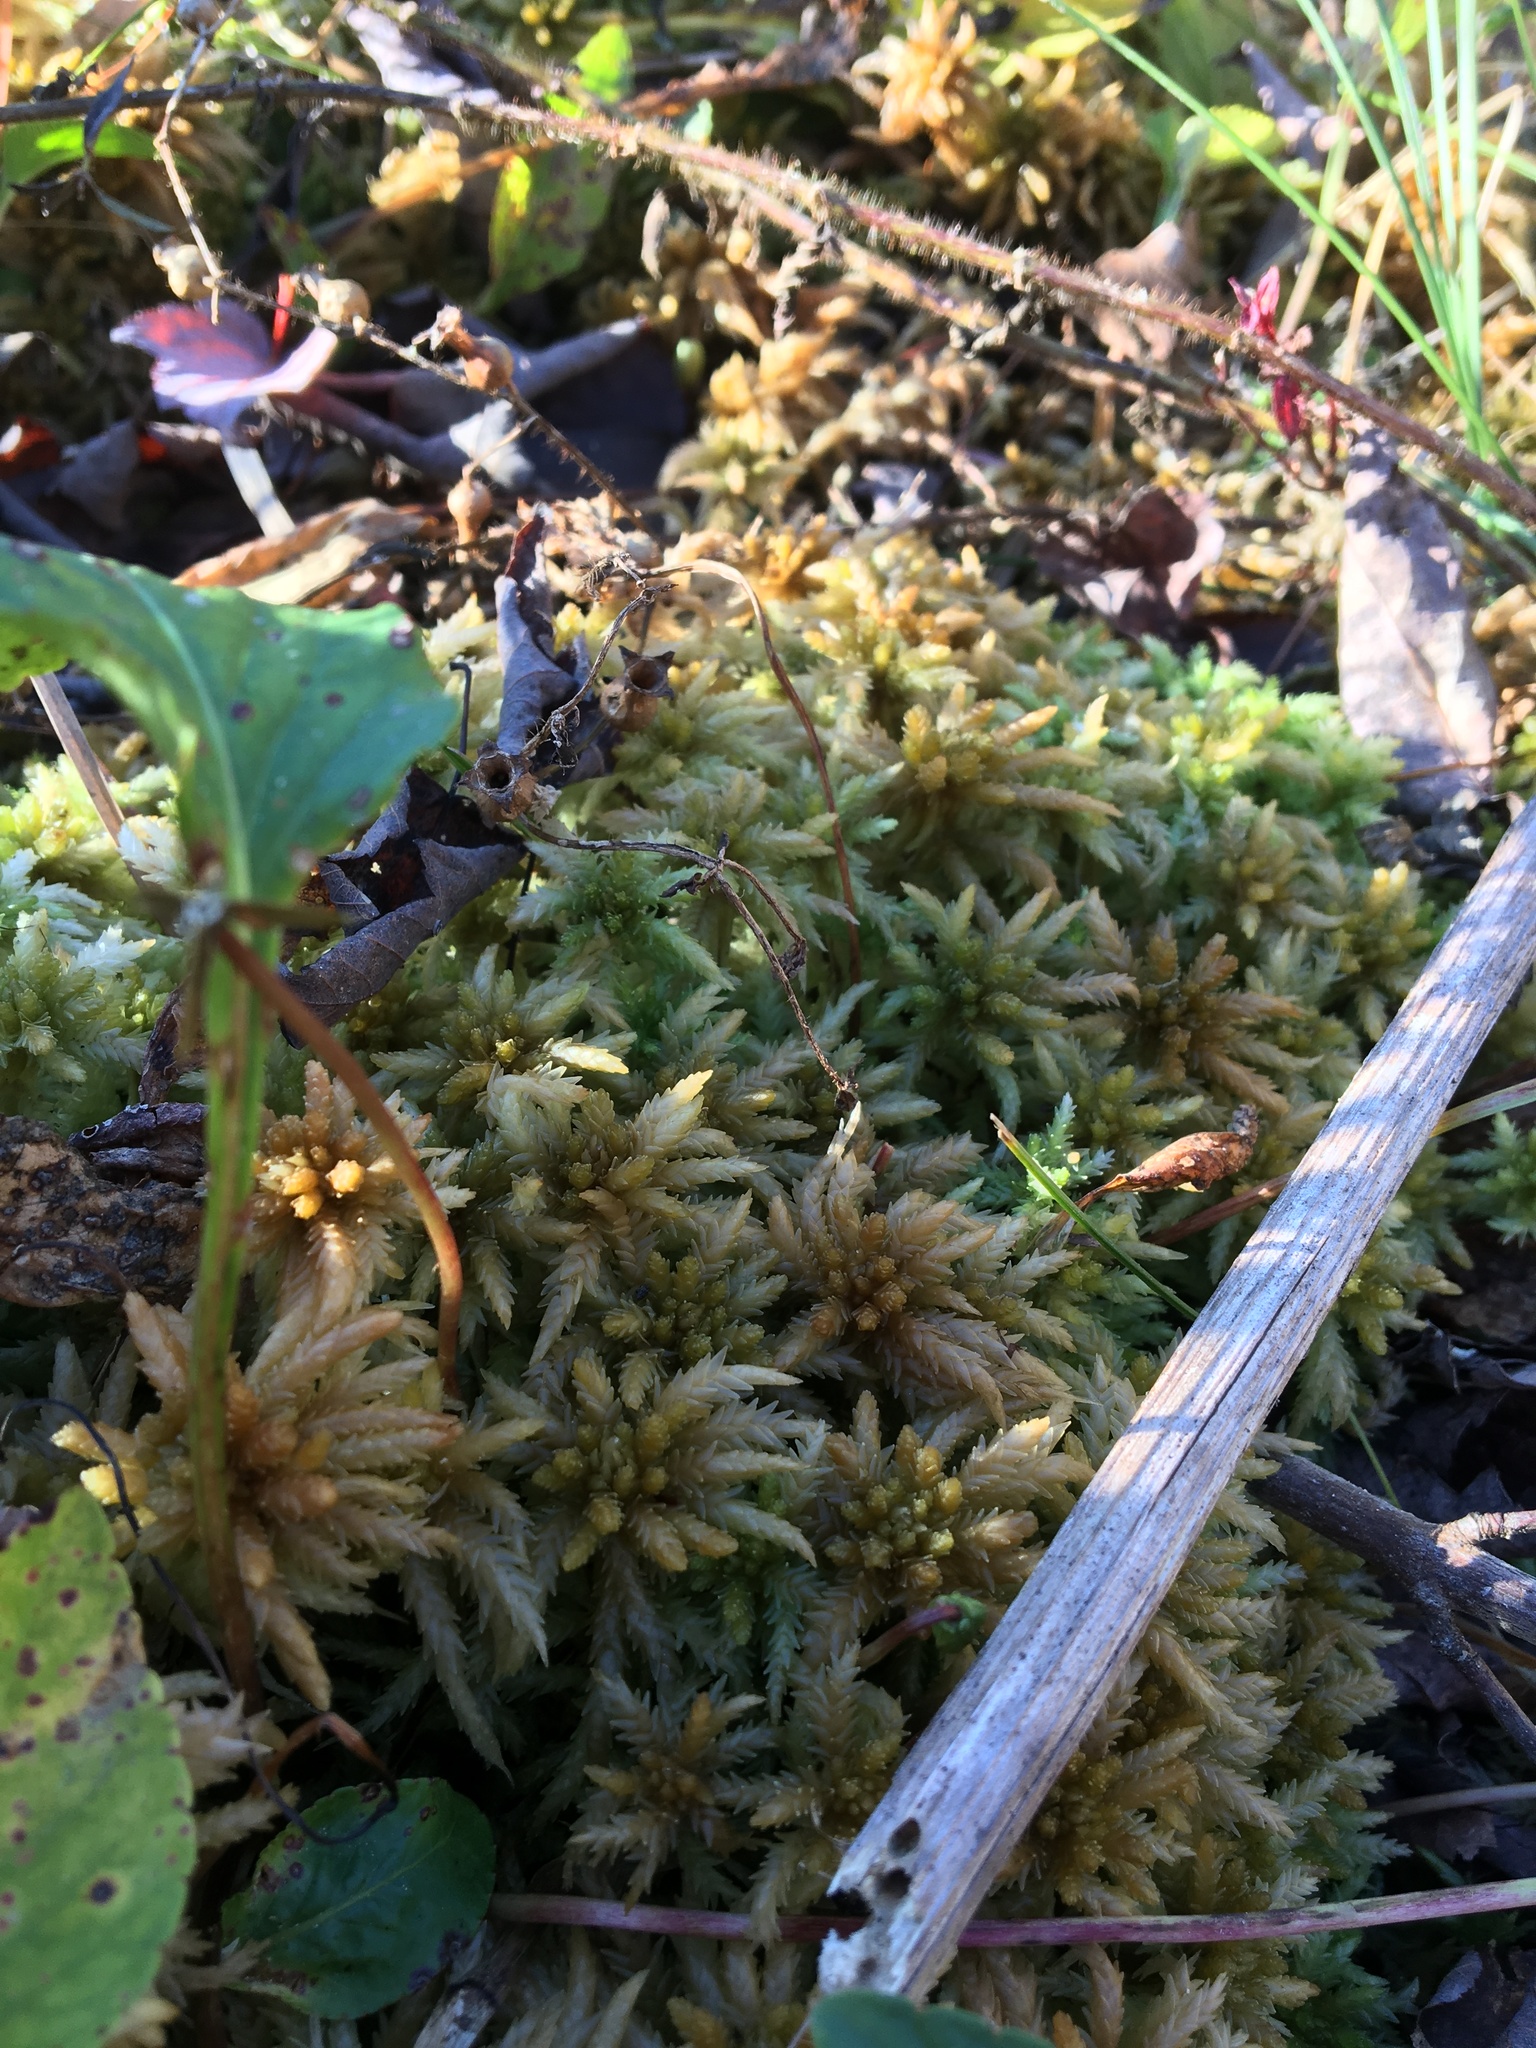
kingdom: Plantae
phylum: Bryophyta
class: Sphagnopsida
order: Sphagnales
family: Sphagnaceae
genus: Sphagnum
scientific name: Sphagnum palustre
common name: Blunt-leaved bog-moss
